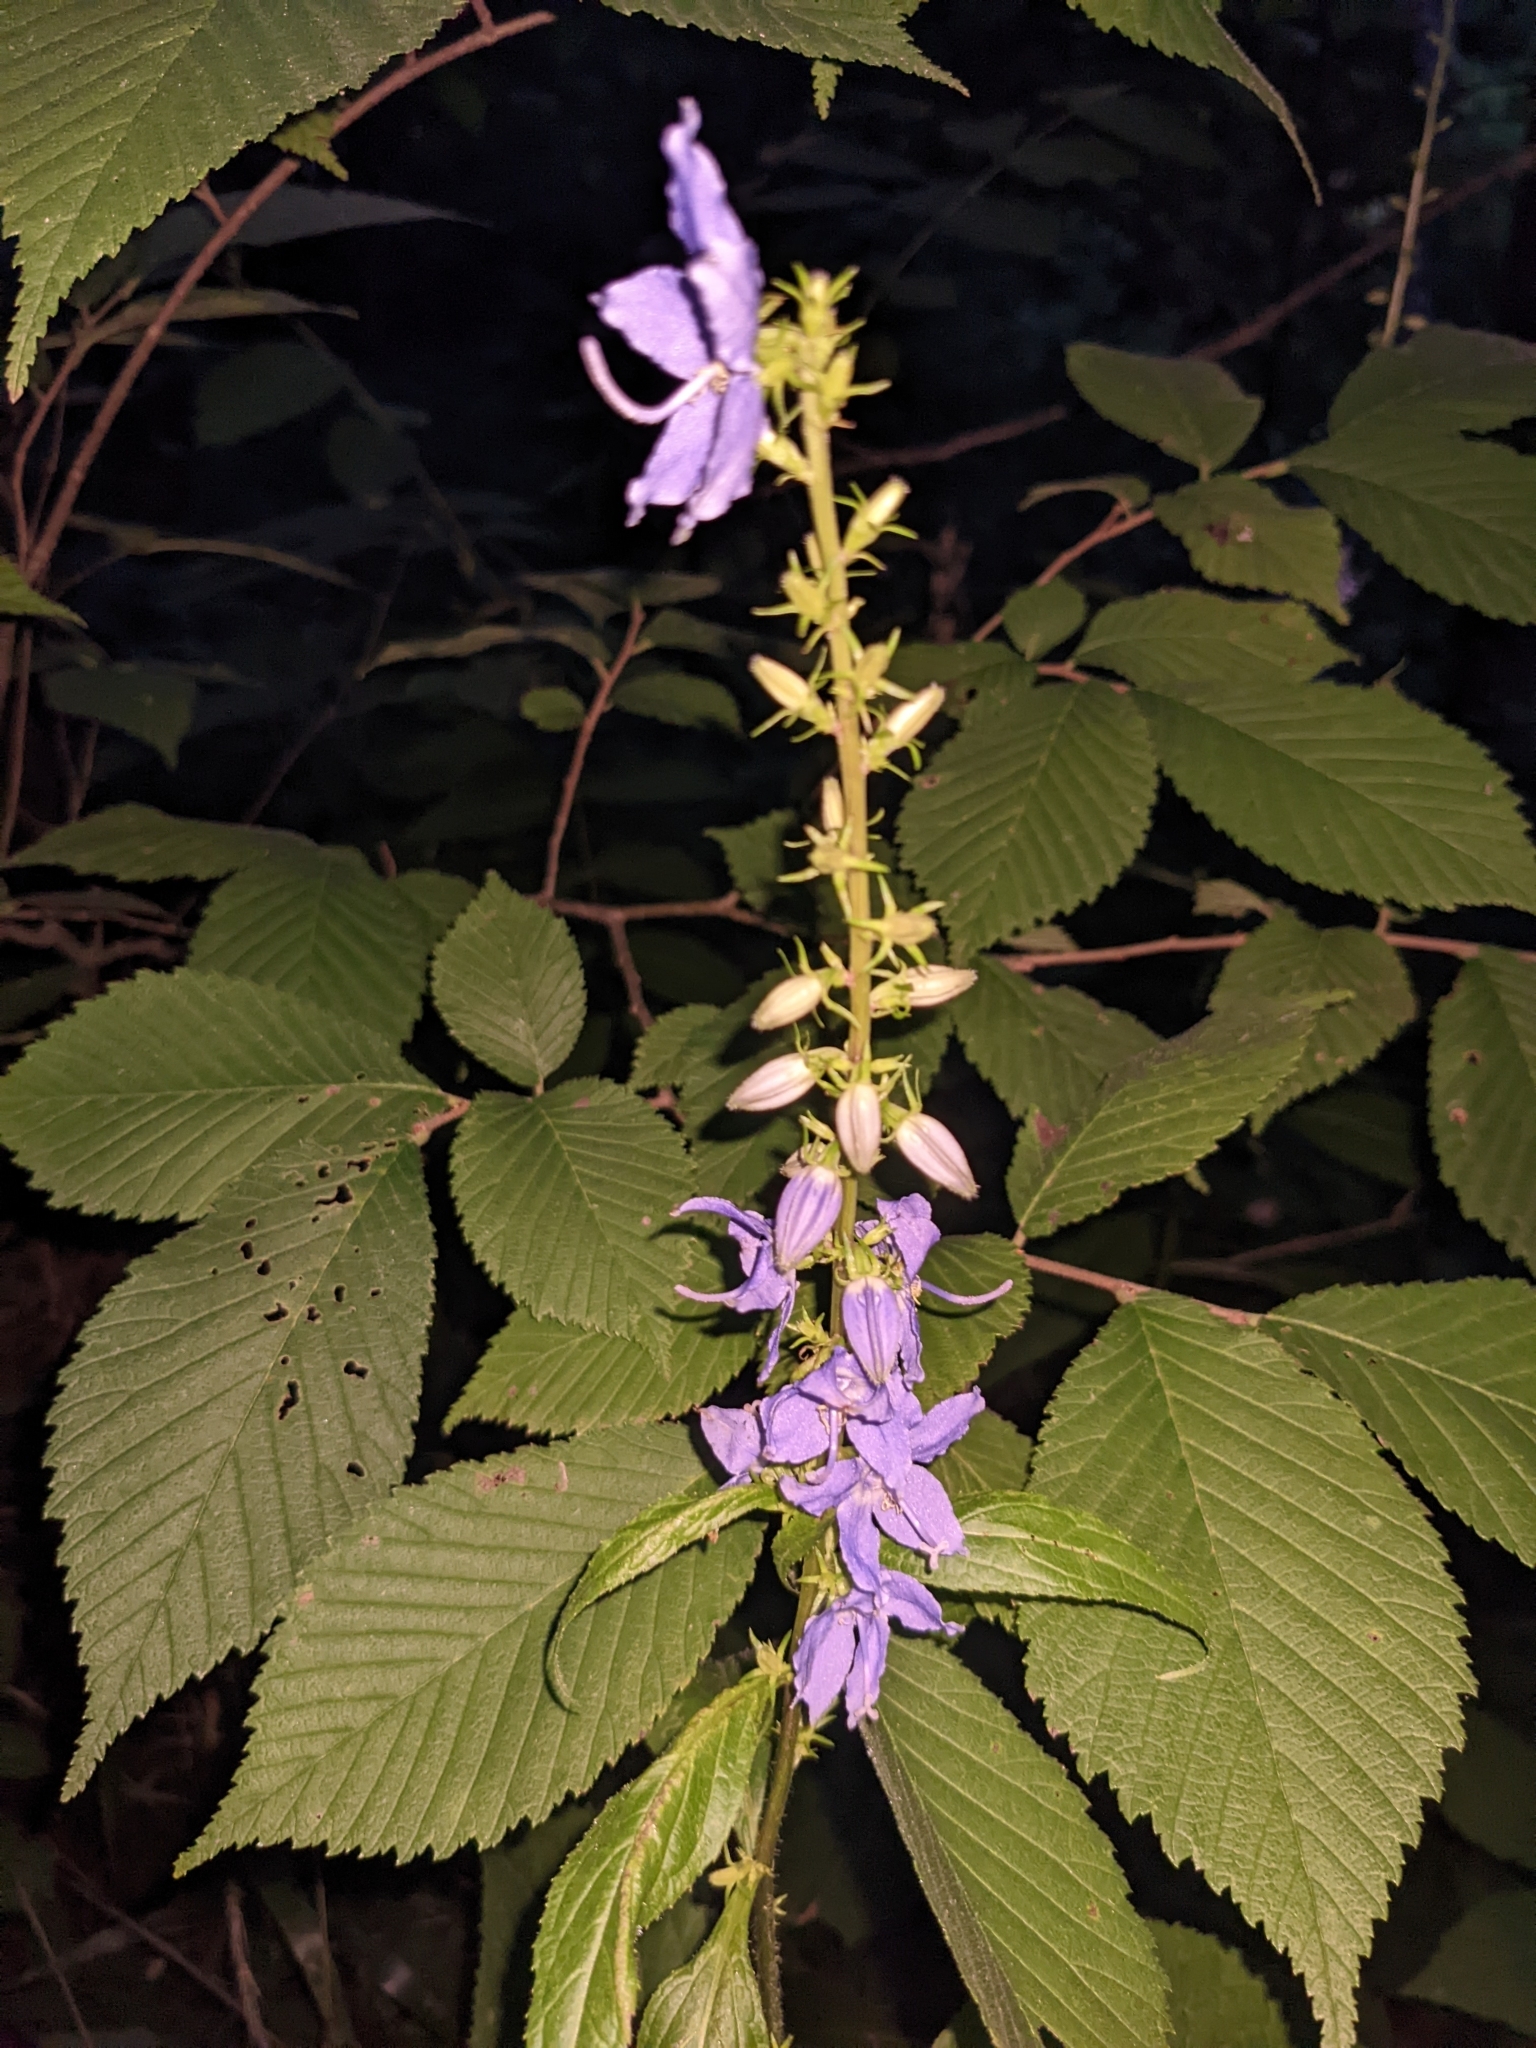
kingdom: Plantae
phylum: Tracheophyta
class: Magnoliopsida
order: Asterales
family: Campanulaceae
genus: Campanulastrum
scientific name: Campanulastrum americanum
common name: American bellflower
